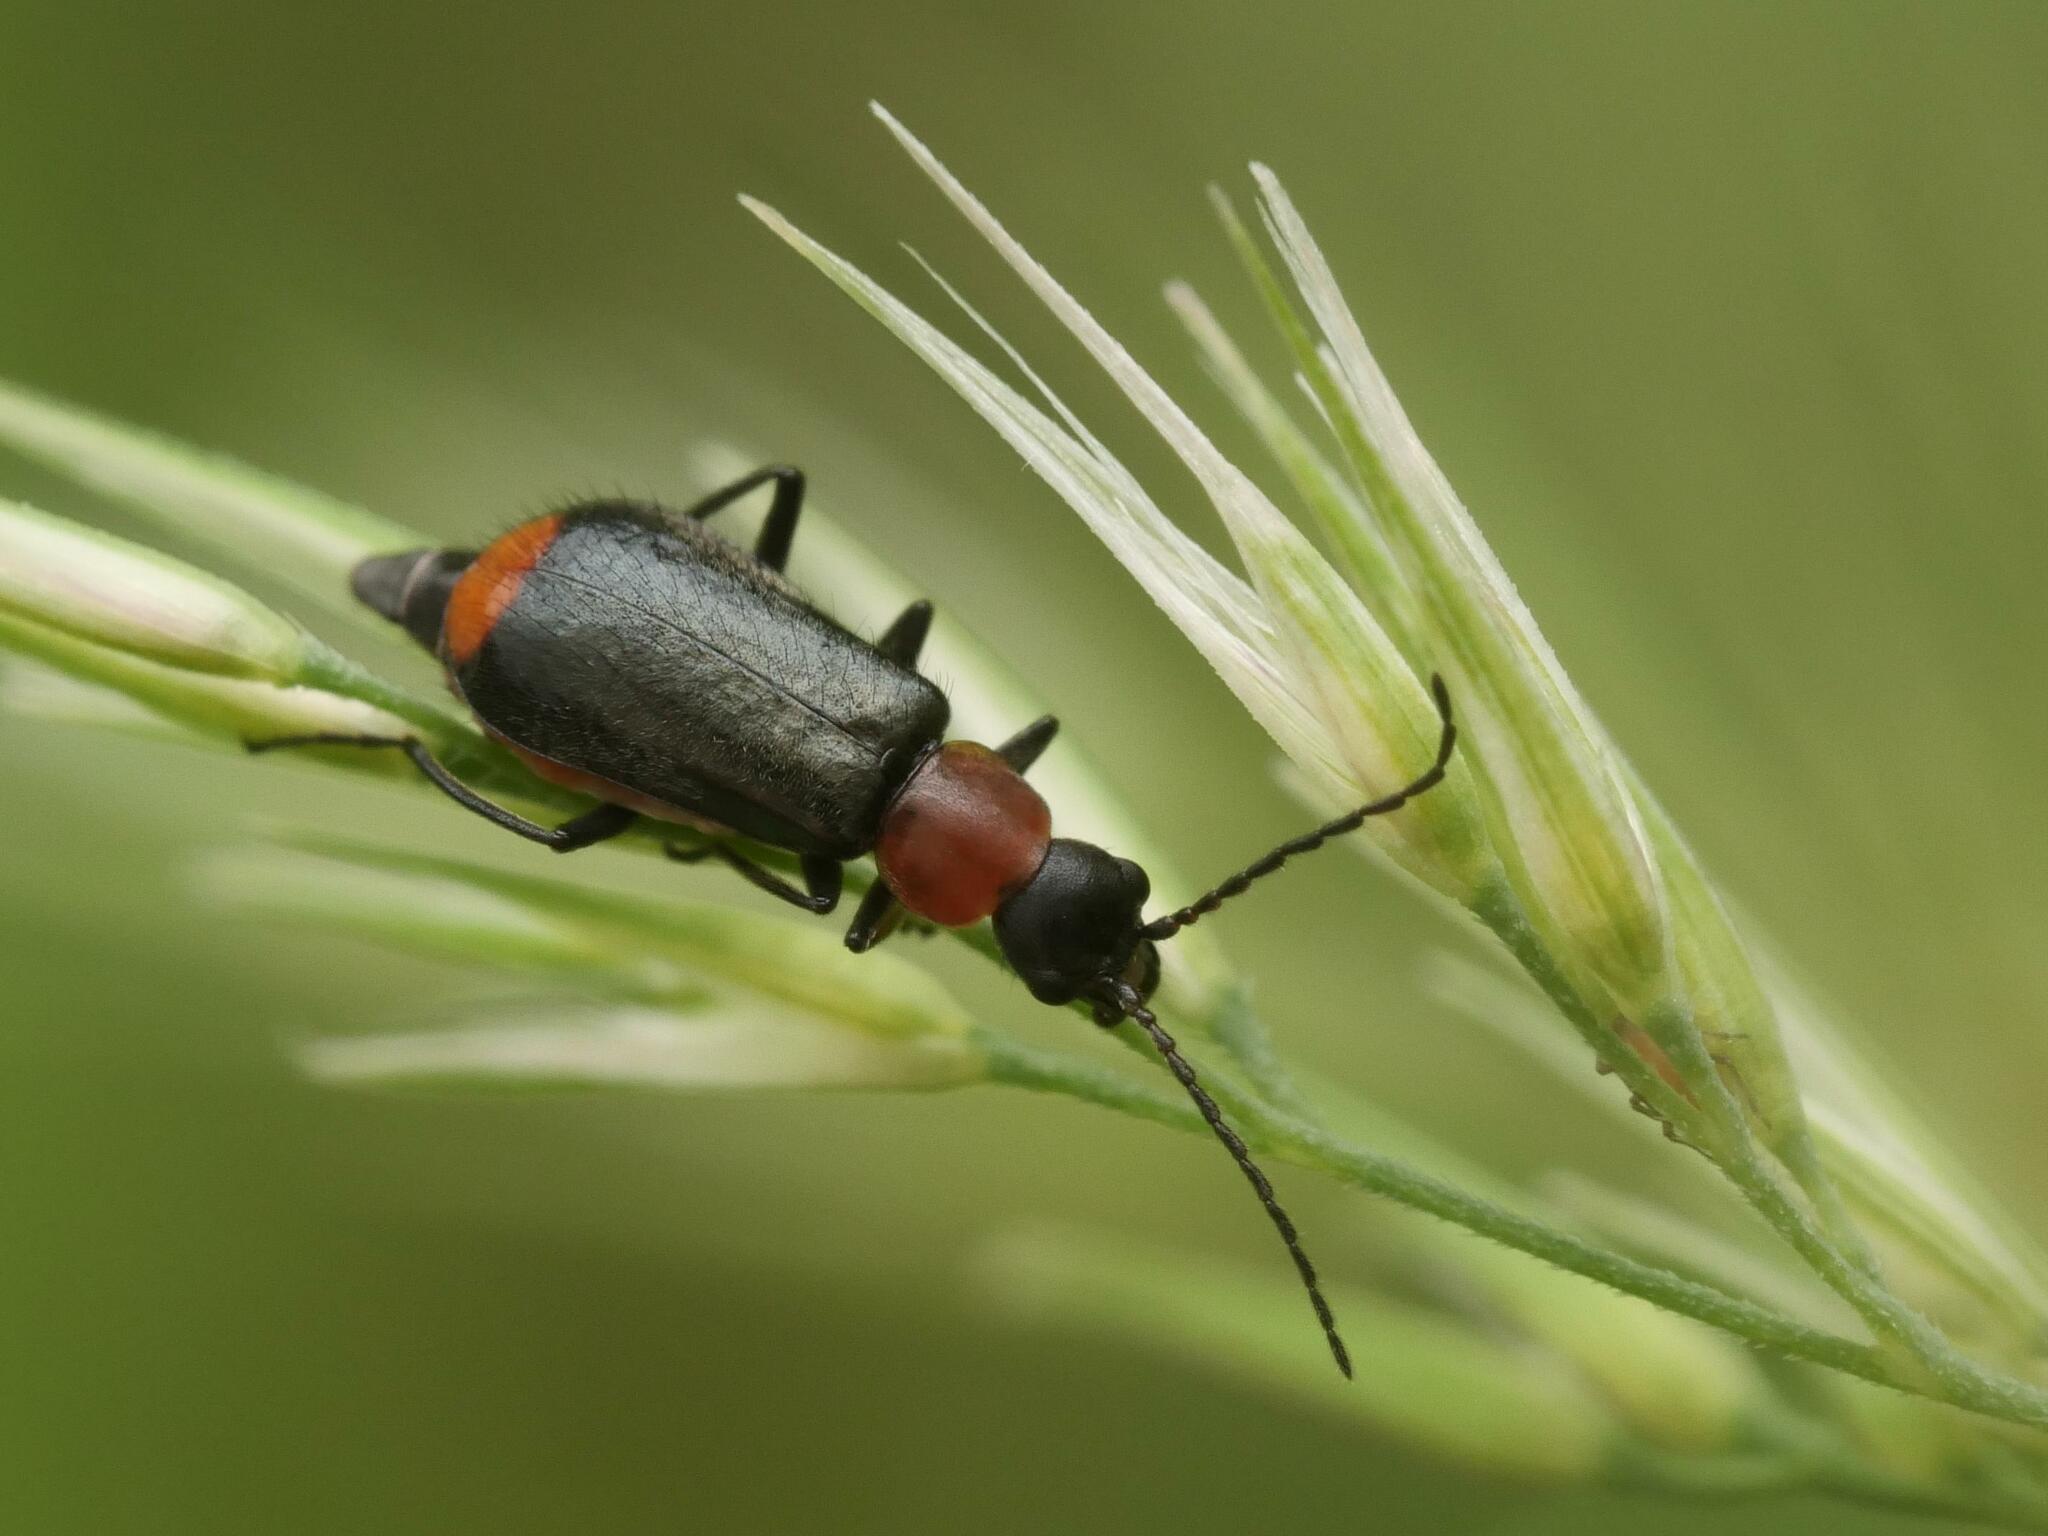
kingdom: Animalia
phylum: Arthropoda
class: Insecta
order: Coleoptera
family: Melyridae
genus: Axinotarsus
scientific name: Axinotarsus ruficollis
